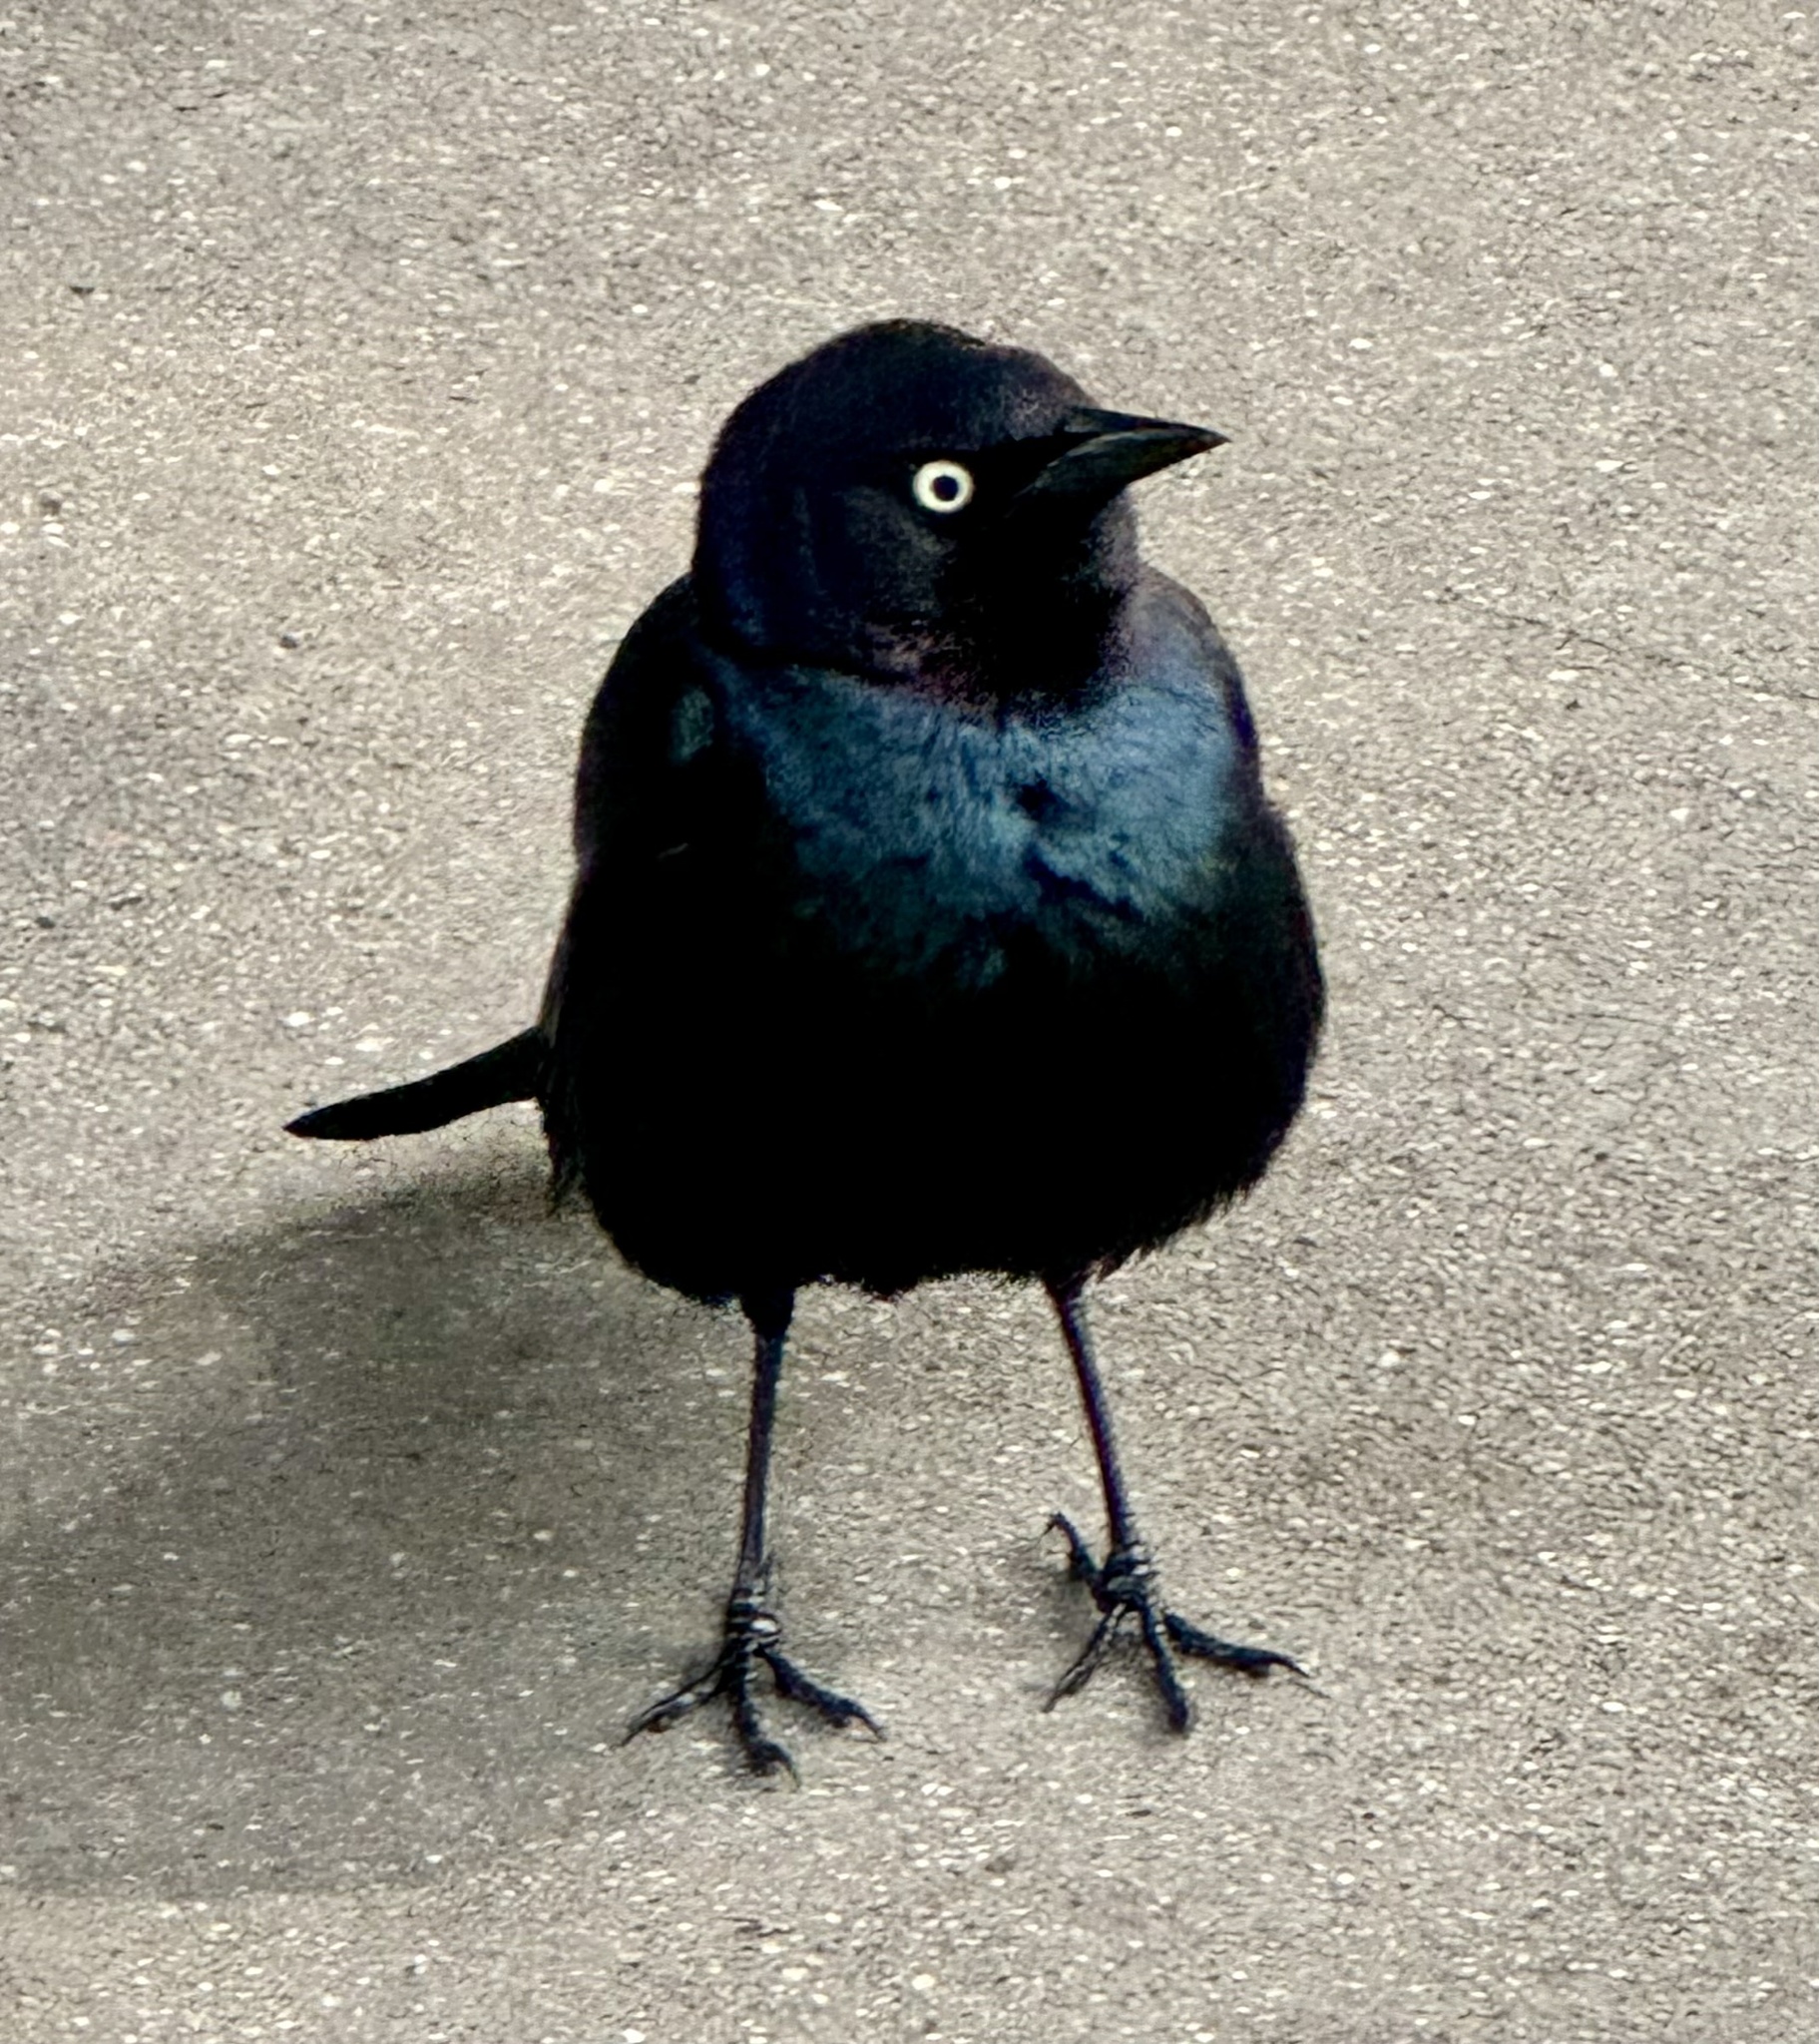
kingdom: Animalia
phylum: Chordata
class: Aves
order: Passeriformes
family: Icteridae
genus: Euphagus
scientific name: Euphagus cyanocephalus
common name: Brewer's blackbird
